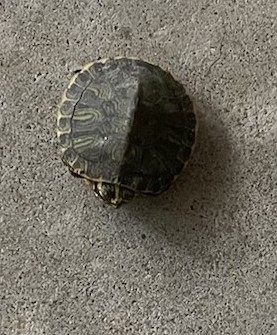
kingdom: Animalia
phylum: Chordata
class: Testudines
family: Emydidae
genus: Trachemys
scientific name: Trachemys scripta
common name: Slider
